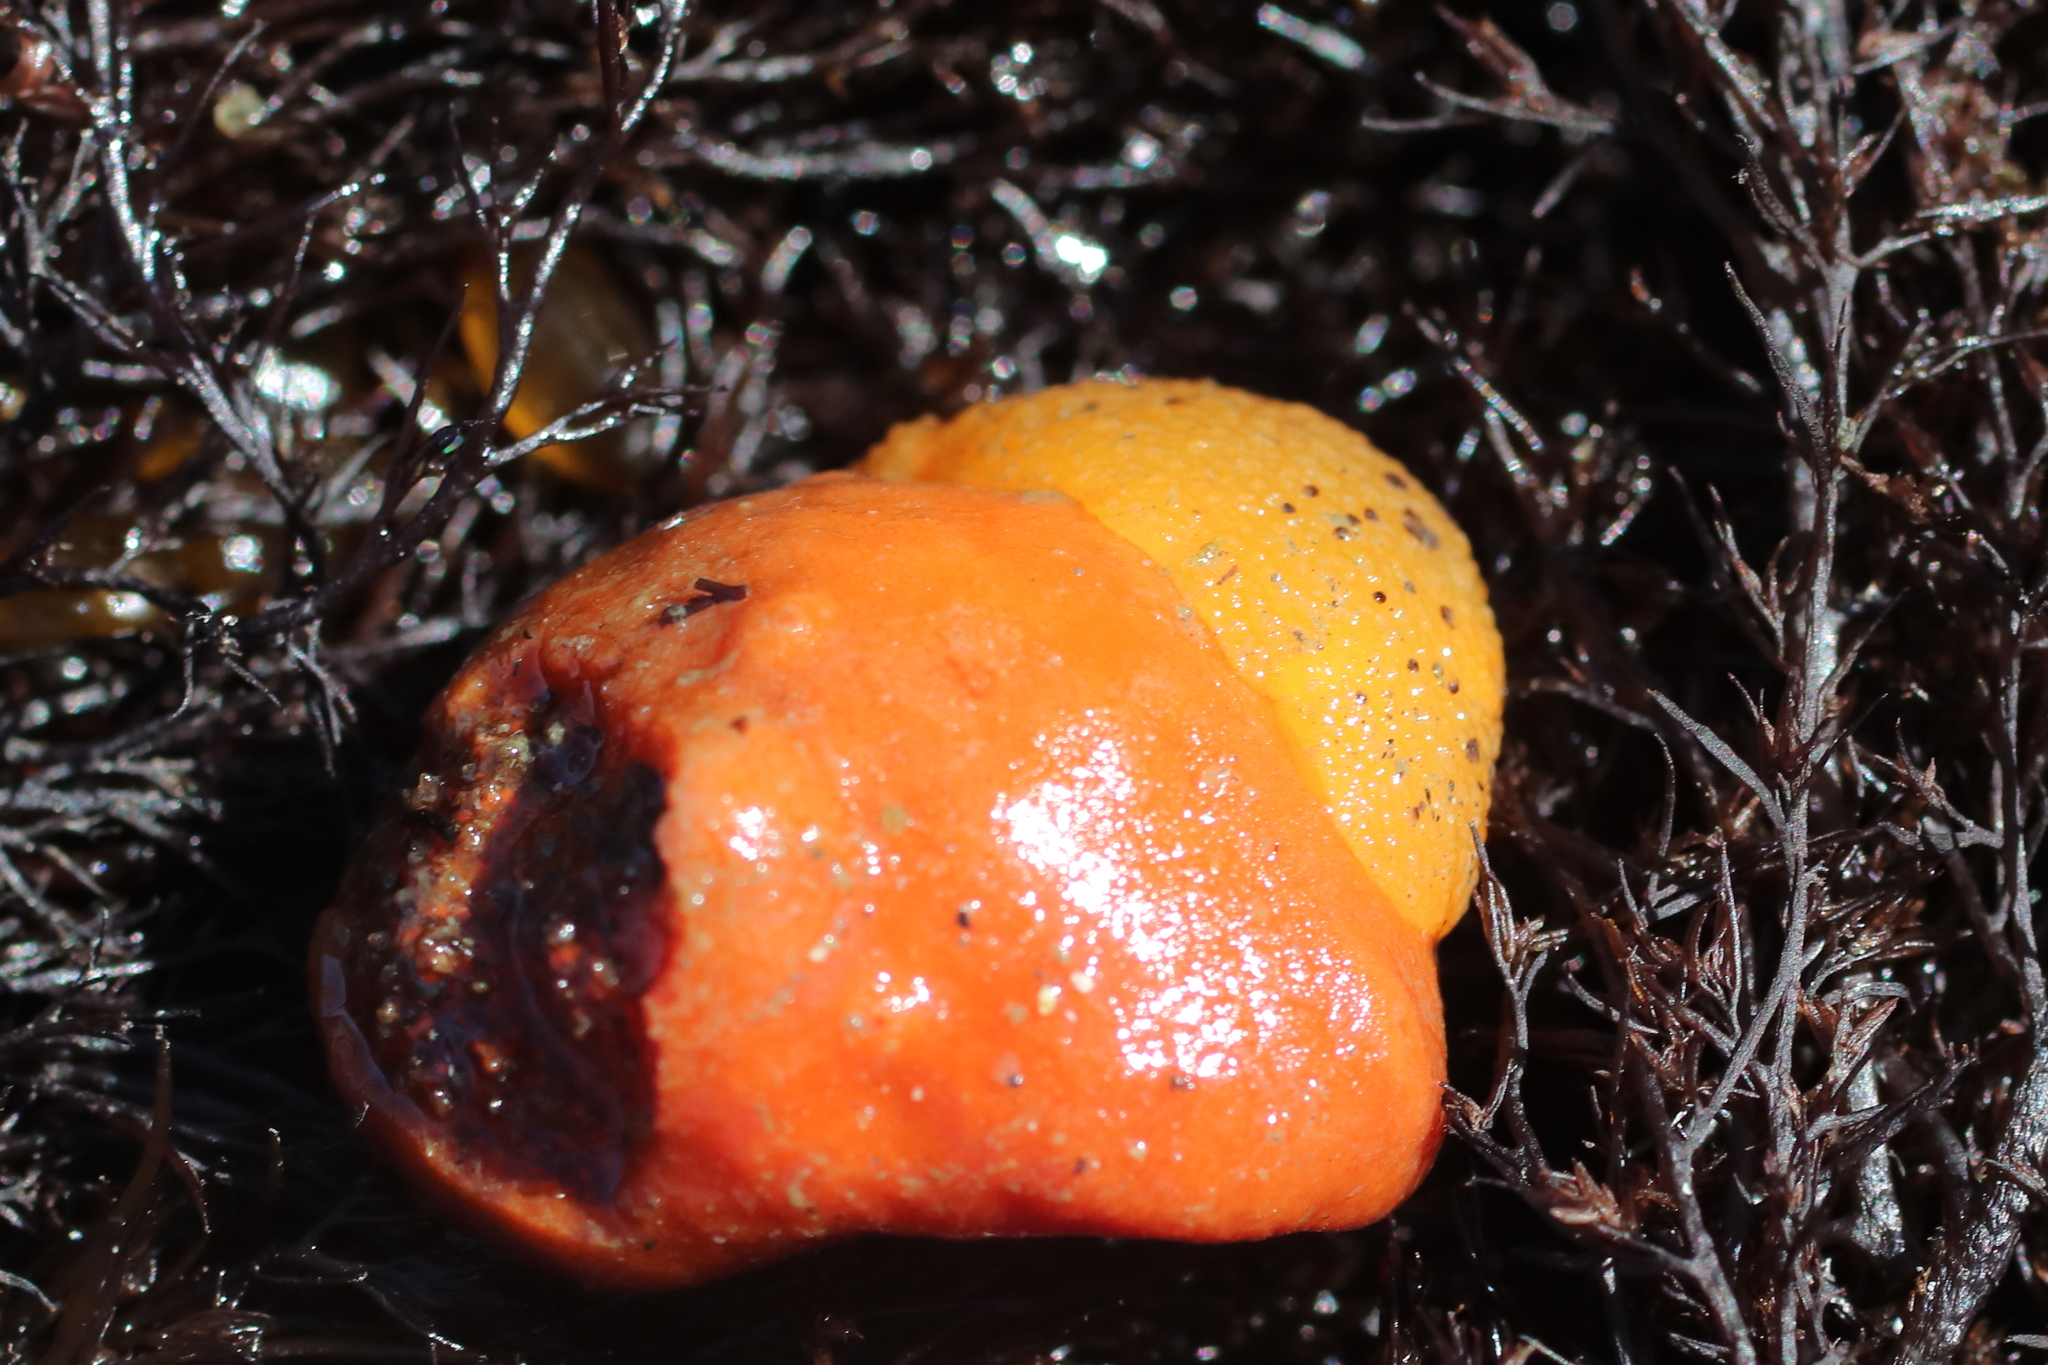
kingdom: Animalia
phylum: Porifera
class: Demospongiae
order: Suberitida
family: Suberitidae
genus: Suberites
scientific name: Suberites latus
